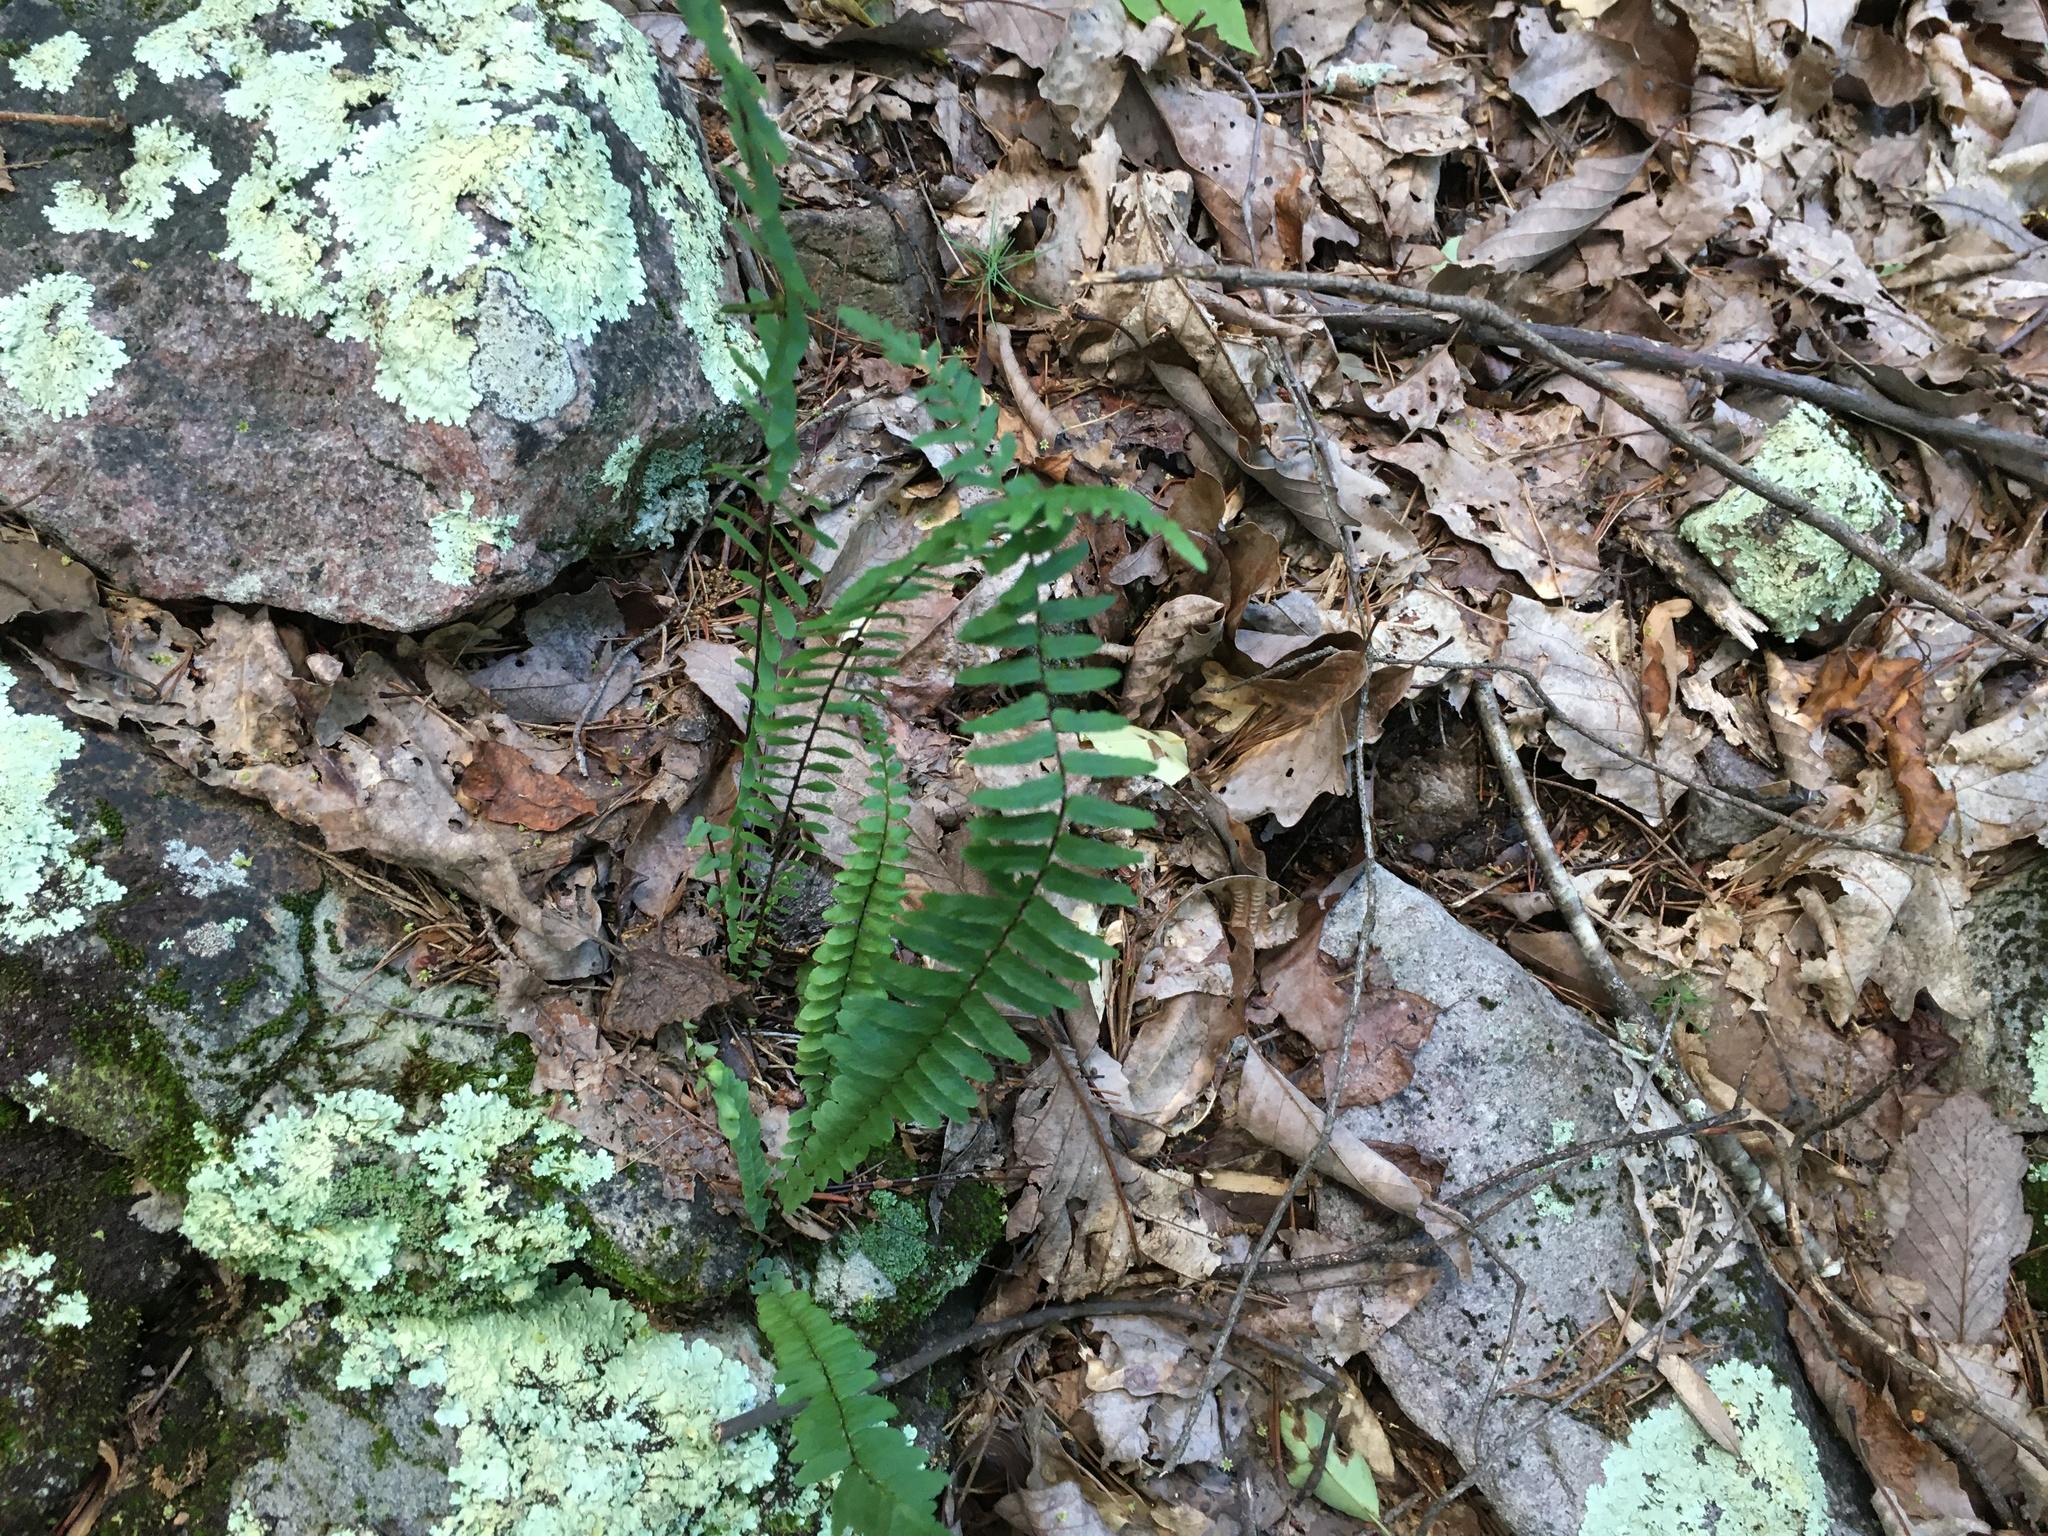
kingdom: Plantae
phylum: Tracheophyta
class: Polypodiopsida
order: Polypodiales
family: Aspleniaceae
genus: Asplenium
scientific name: Asplenium platyneuron
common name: Ebony spleenwort
